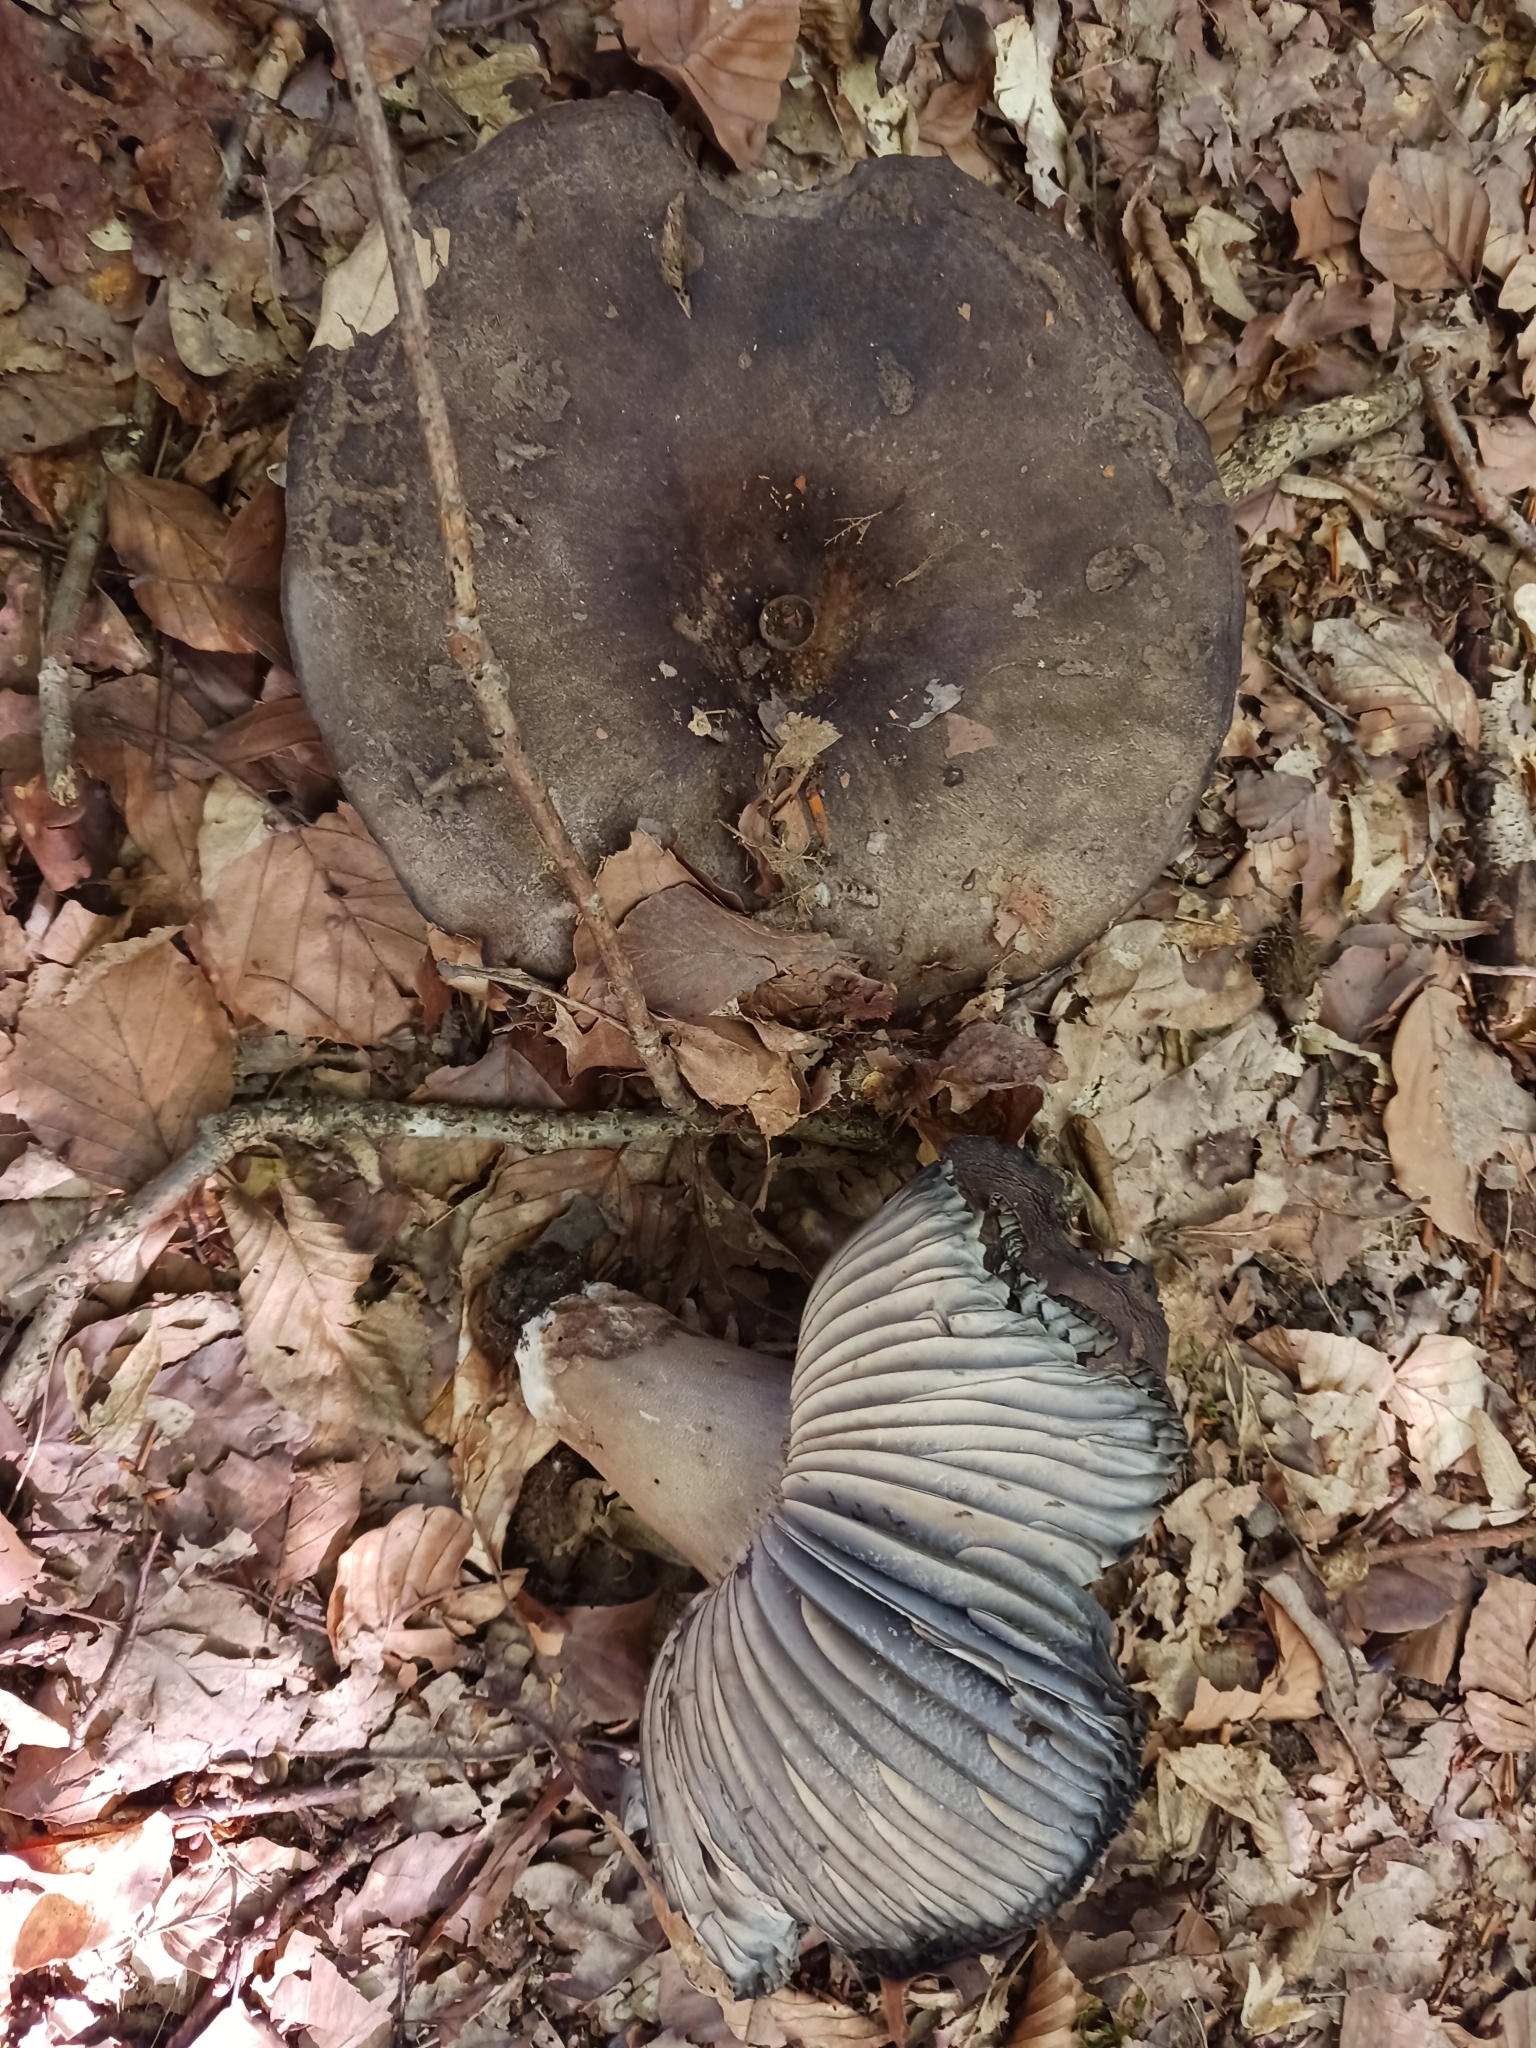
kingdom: Fungi
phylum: Basidiomycota
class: Agaricomycetes
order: Russulales
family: Russulaceae
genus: Russula
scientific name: Russula adusta
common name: Winecork brittlegill
